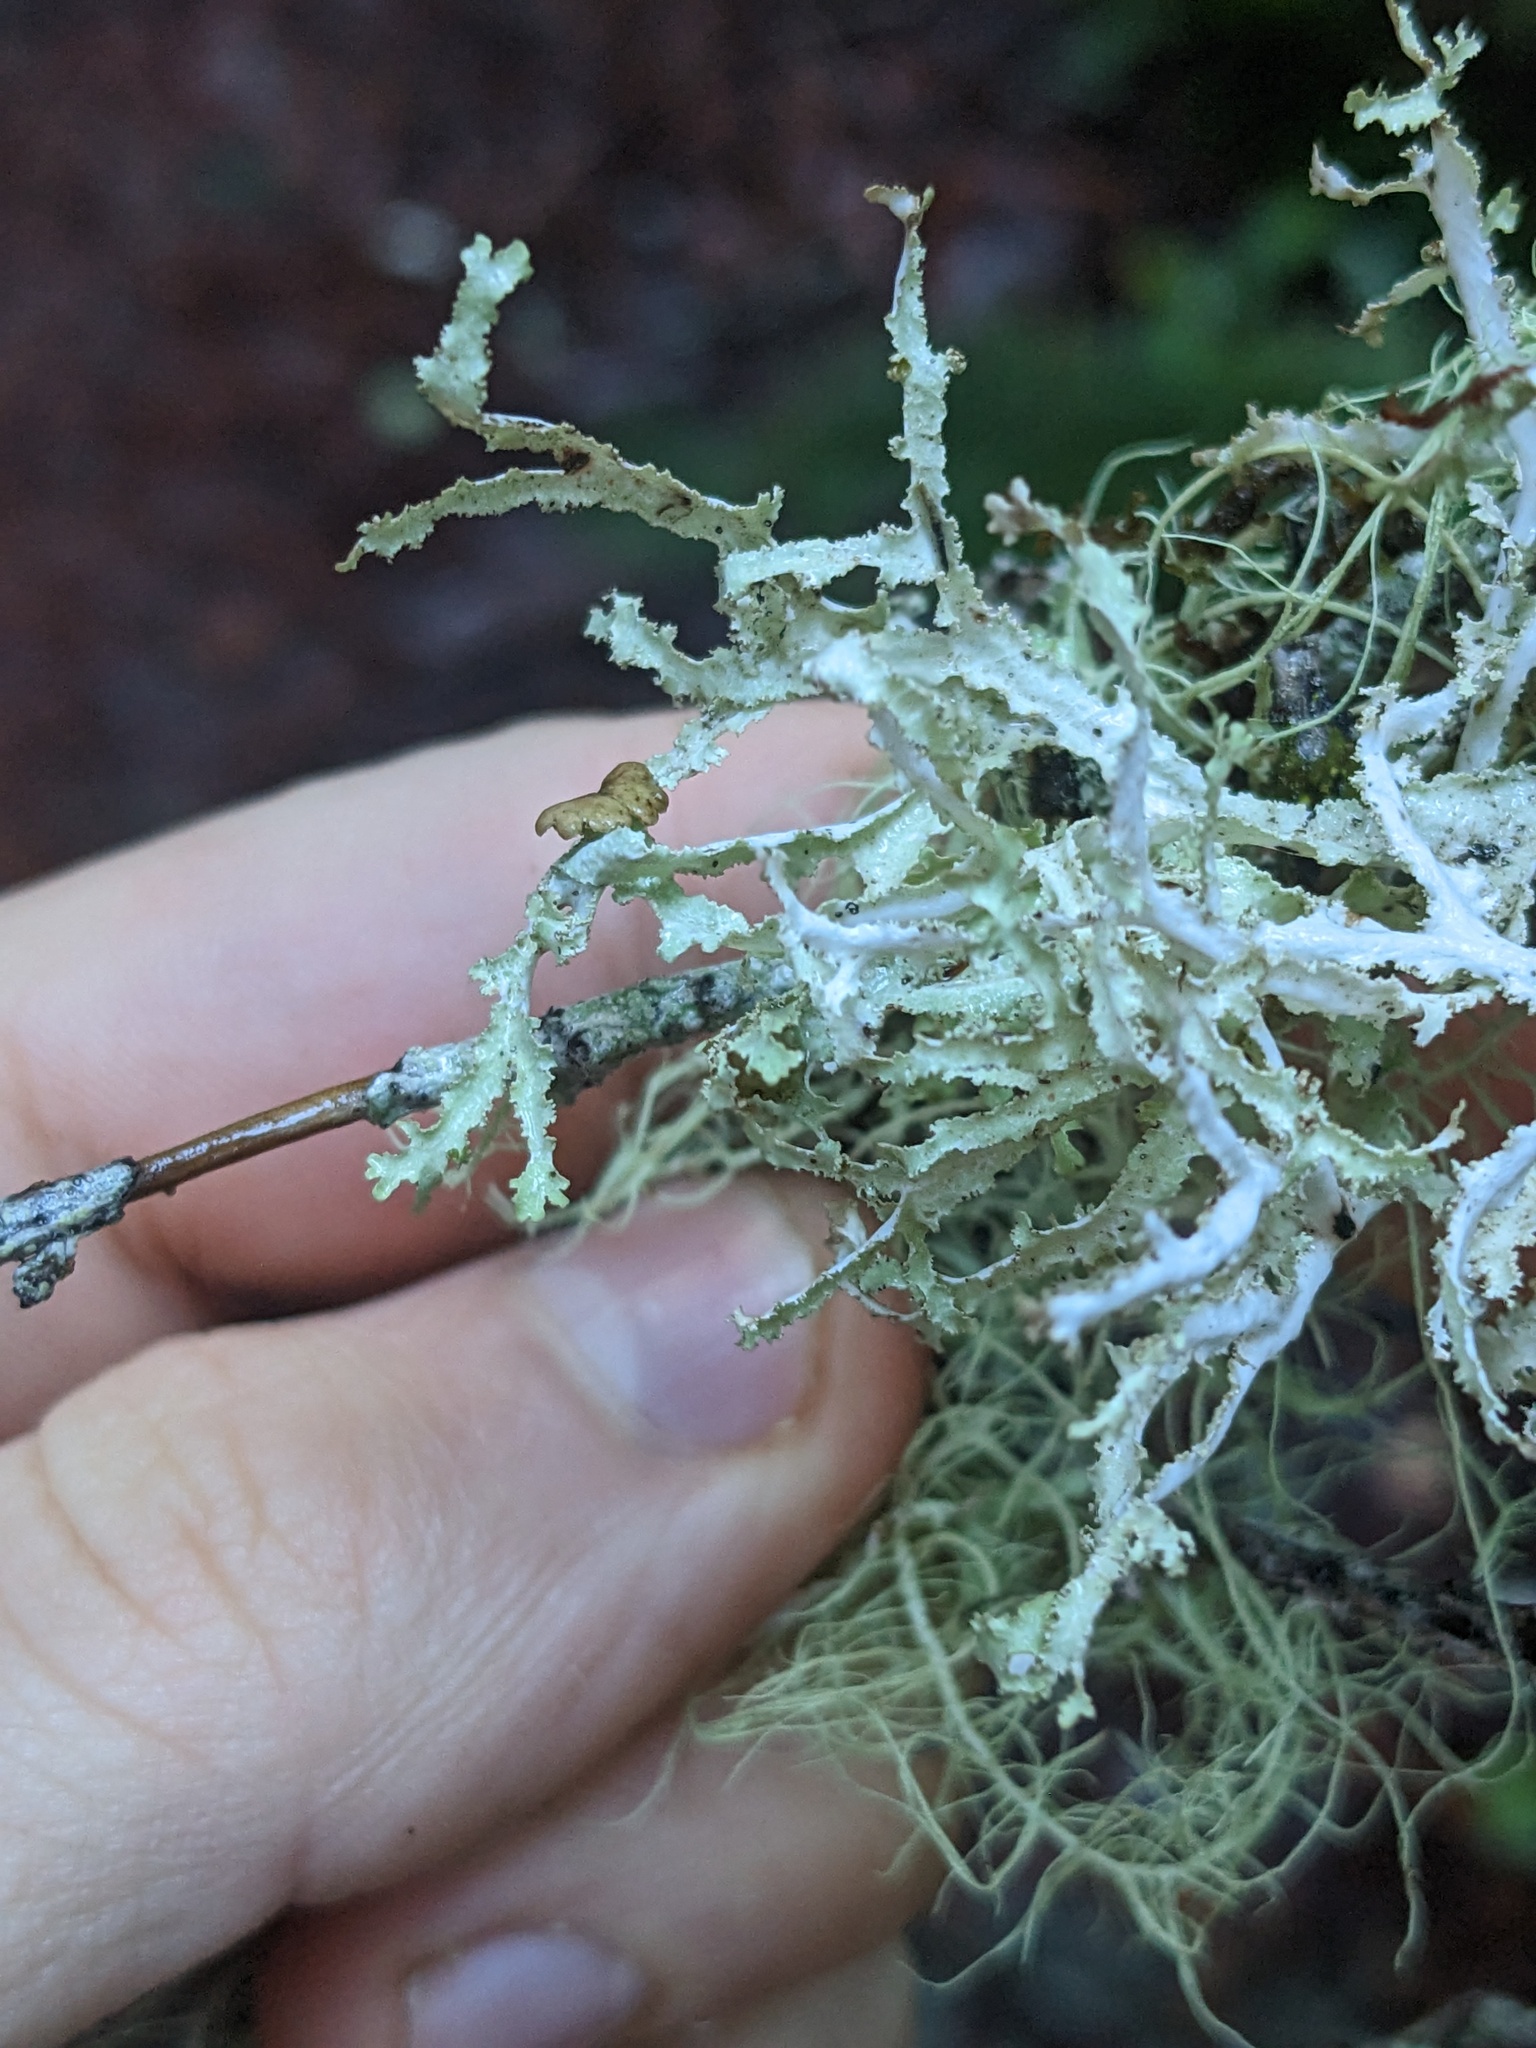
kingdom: Fungi
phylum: Ascomycota
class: Lecanoromycetes
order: Lecanorales
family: Parmeliaceae
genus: Platismatia
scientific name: Platismatia herrei
